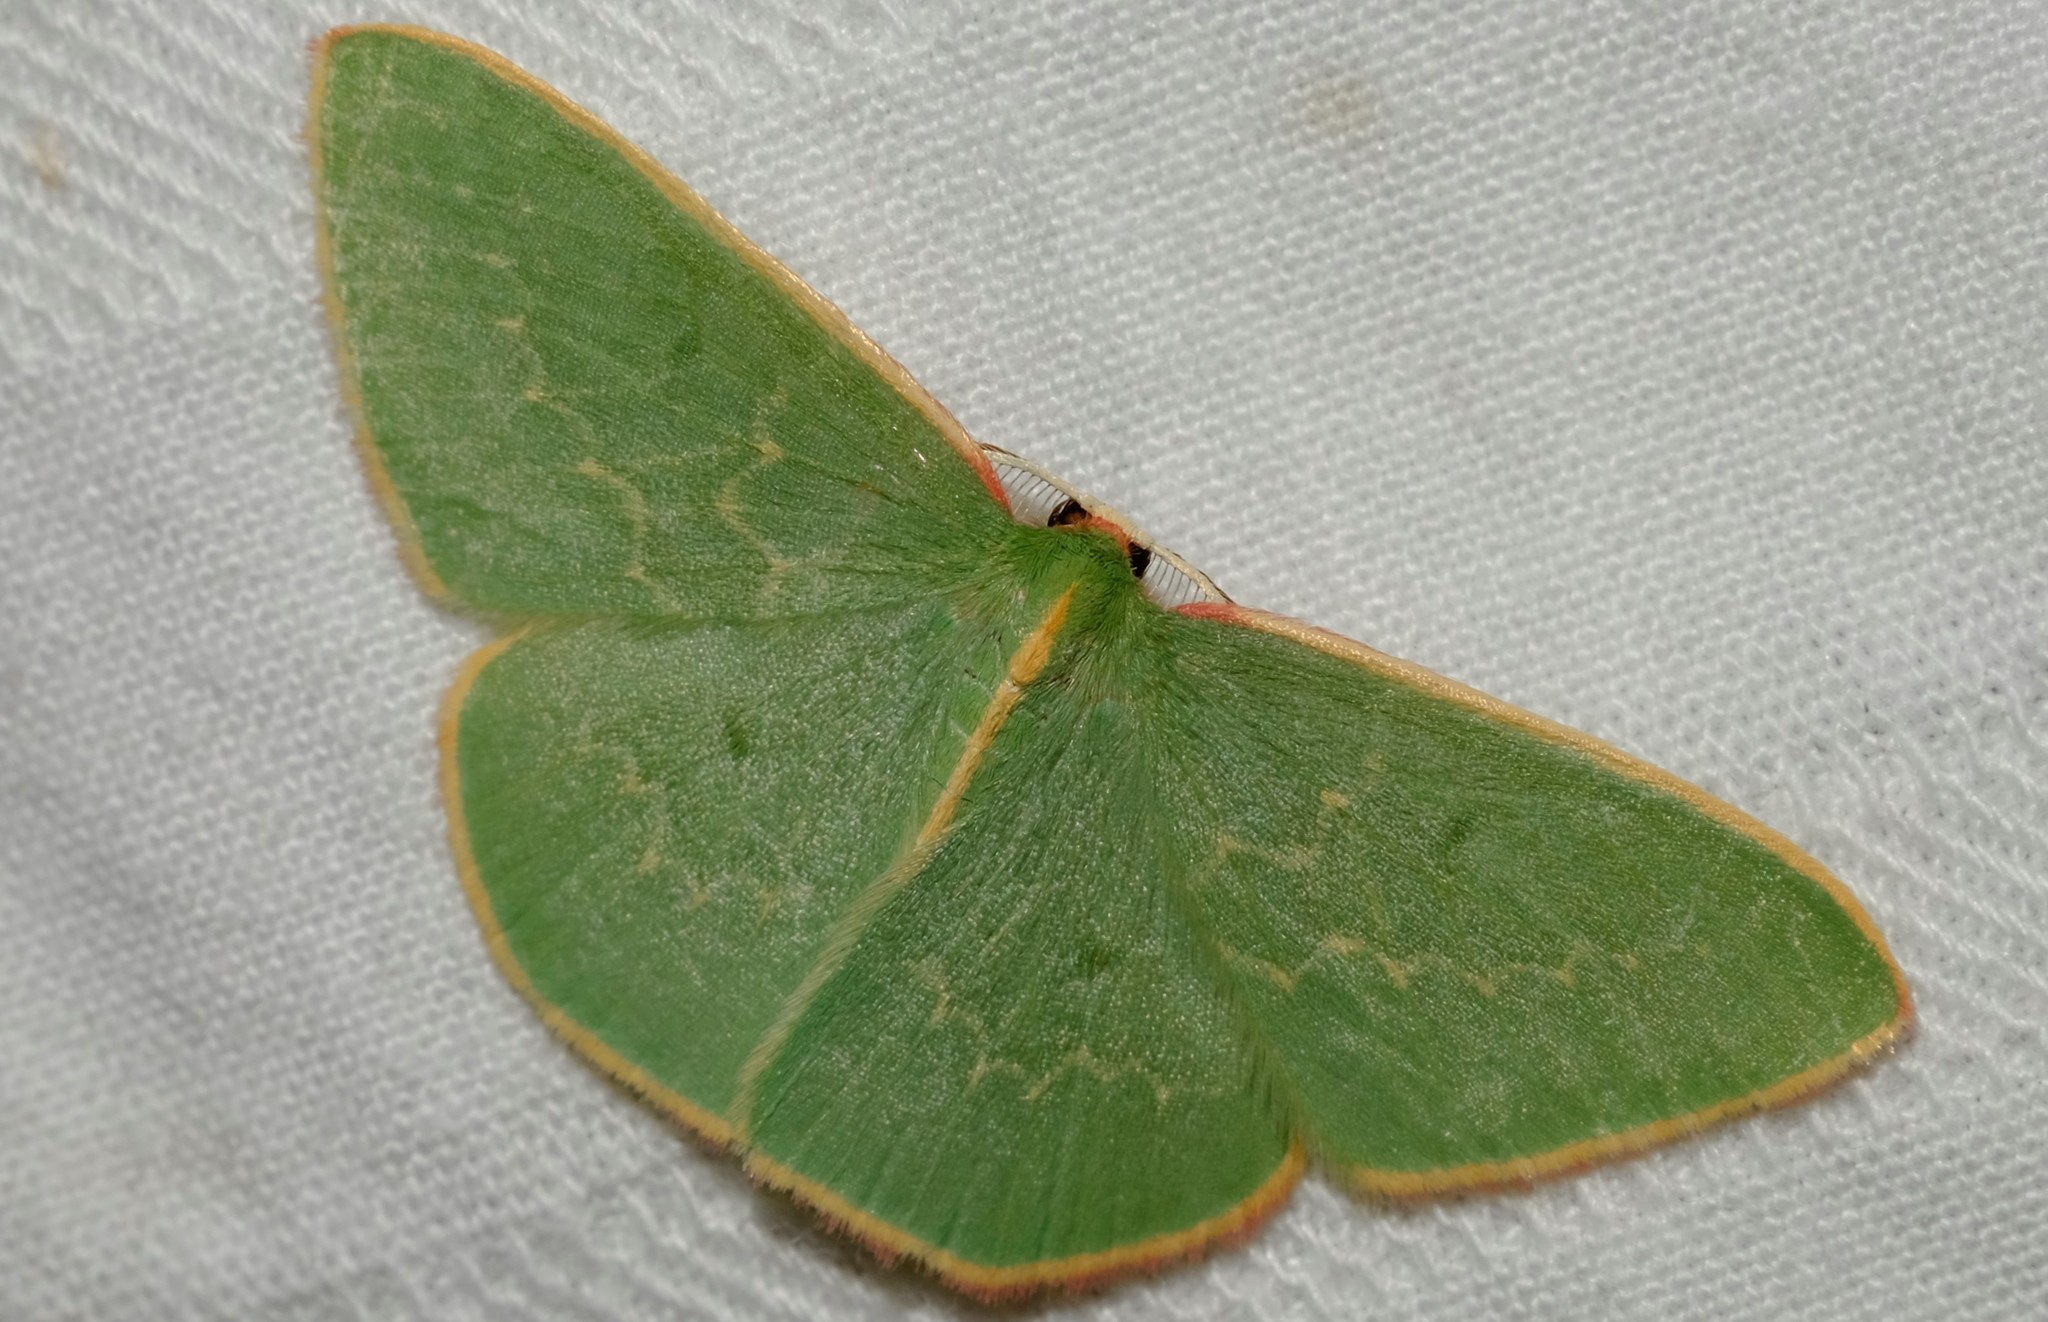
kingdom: Animalia
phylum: Arthropoda
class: Insecta
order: Lepidoptera
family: Geometridae
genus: Chlorocoma
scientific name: Chlorocoma dichloraria
